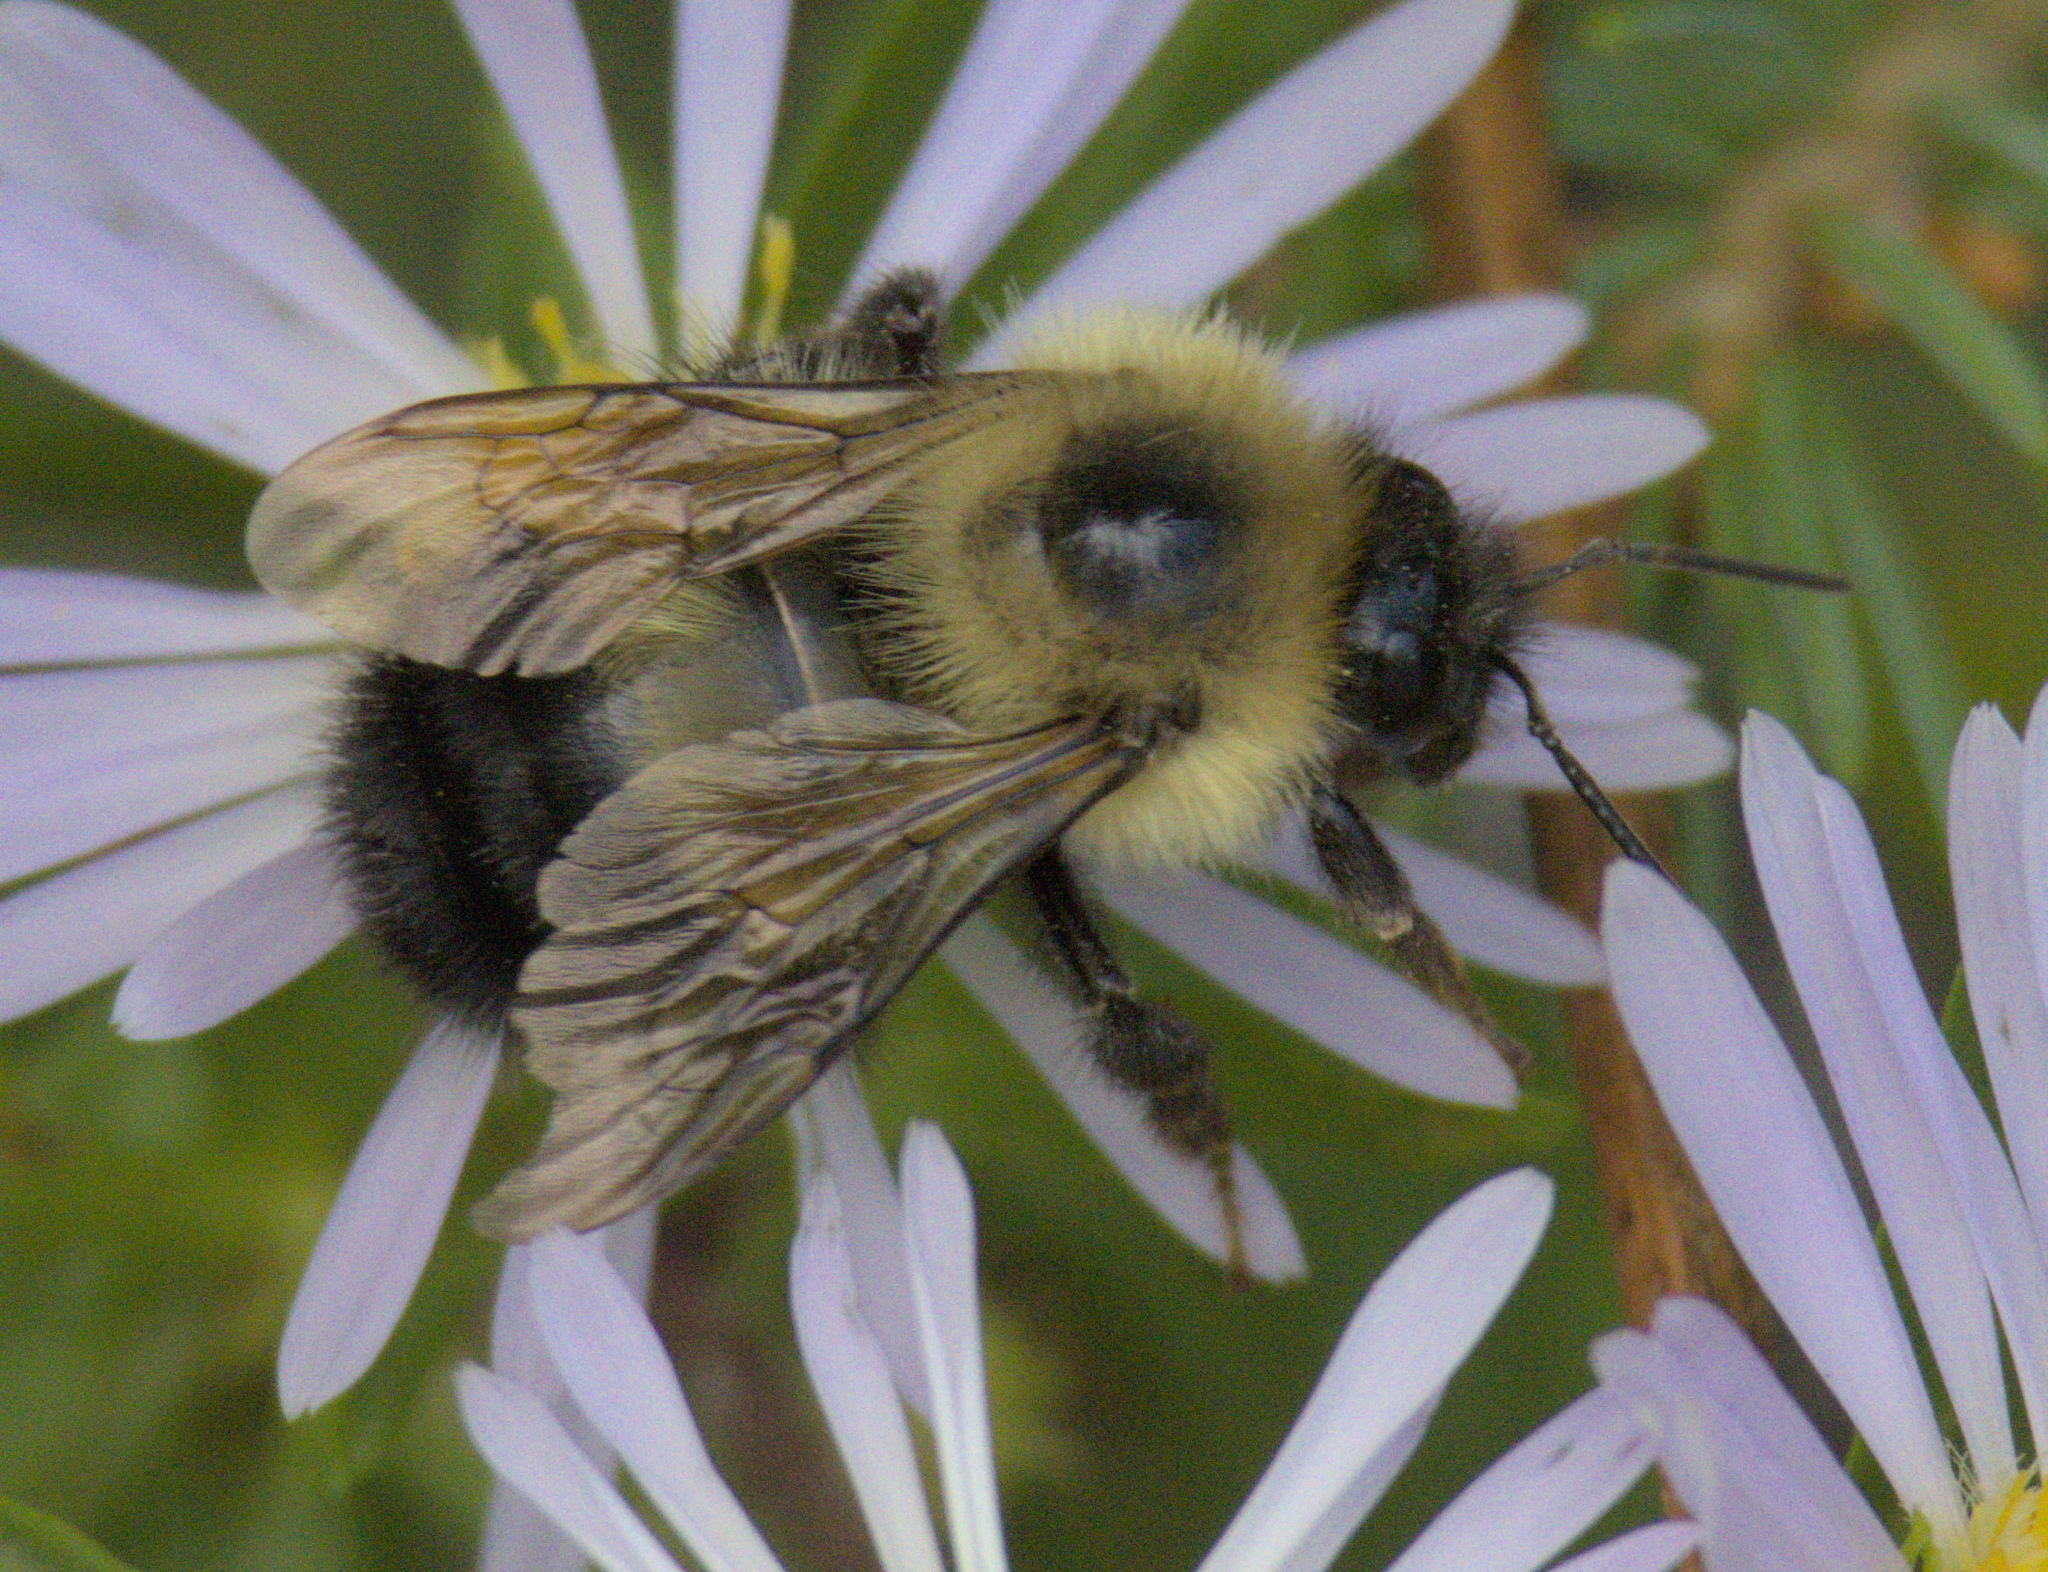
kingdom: Animalia
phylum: Arthropoda
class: Insecta
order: Hymenoptera
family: Apidae
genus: Pyrobombus
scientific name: Pyrobombus
